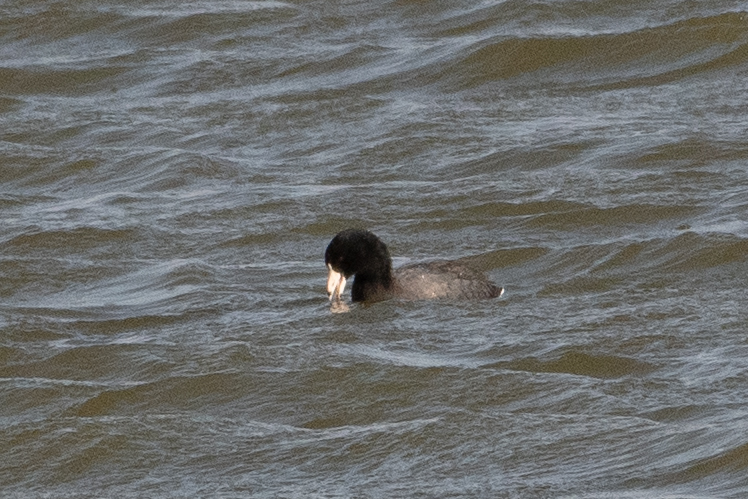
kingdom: Animalia
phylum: Chordata
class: Aves
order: Gruiformes
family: Rallidae
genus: Fulica
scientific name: Fulica americana
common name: American coot
